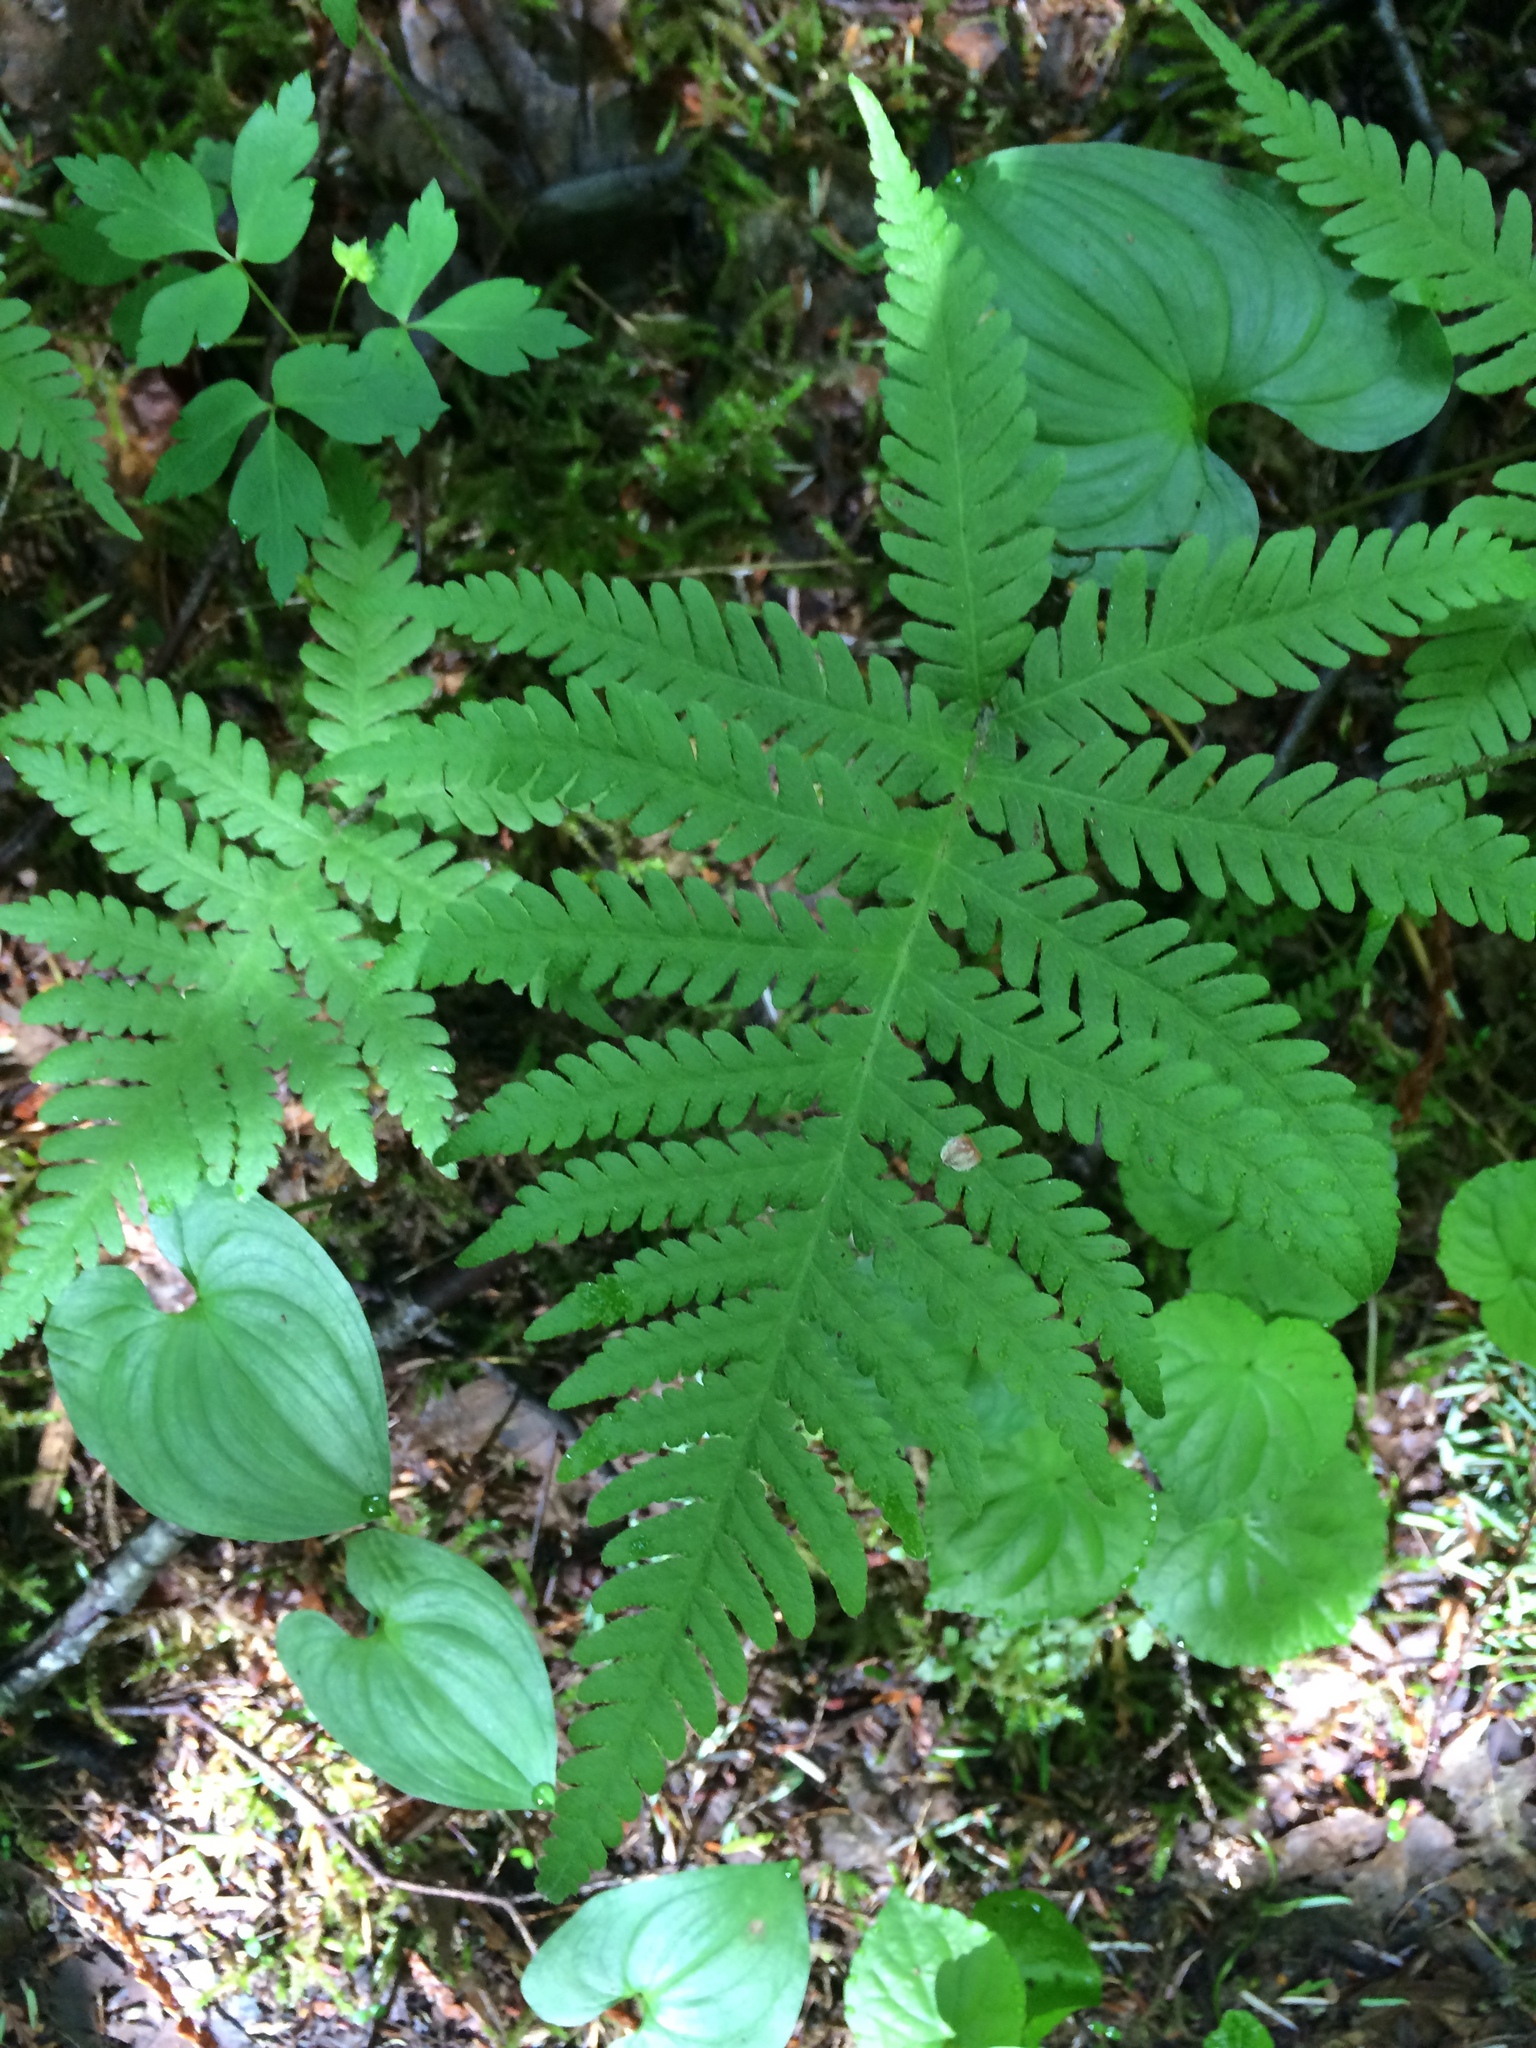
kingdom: Plantae
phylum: Tracheophyta
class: Polypodiopsida
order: Polypodiales
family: Thelypteridaceae
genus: Phegopteris
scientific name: Phegopteris connectilis
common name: Beech fern
